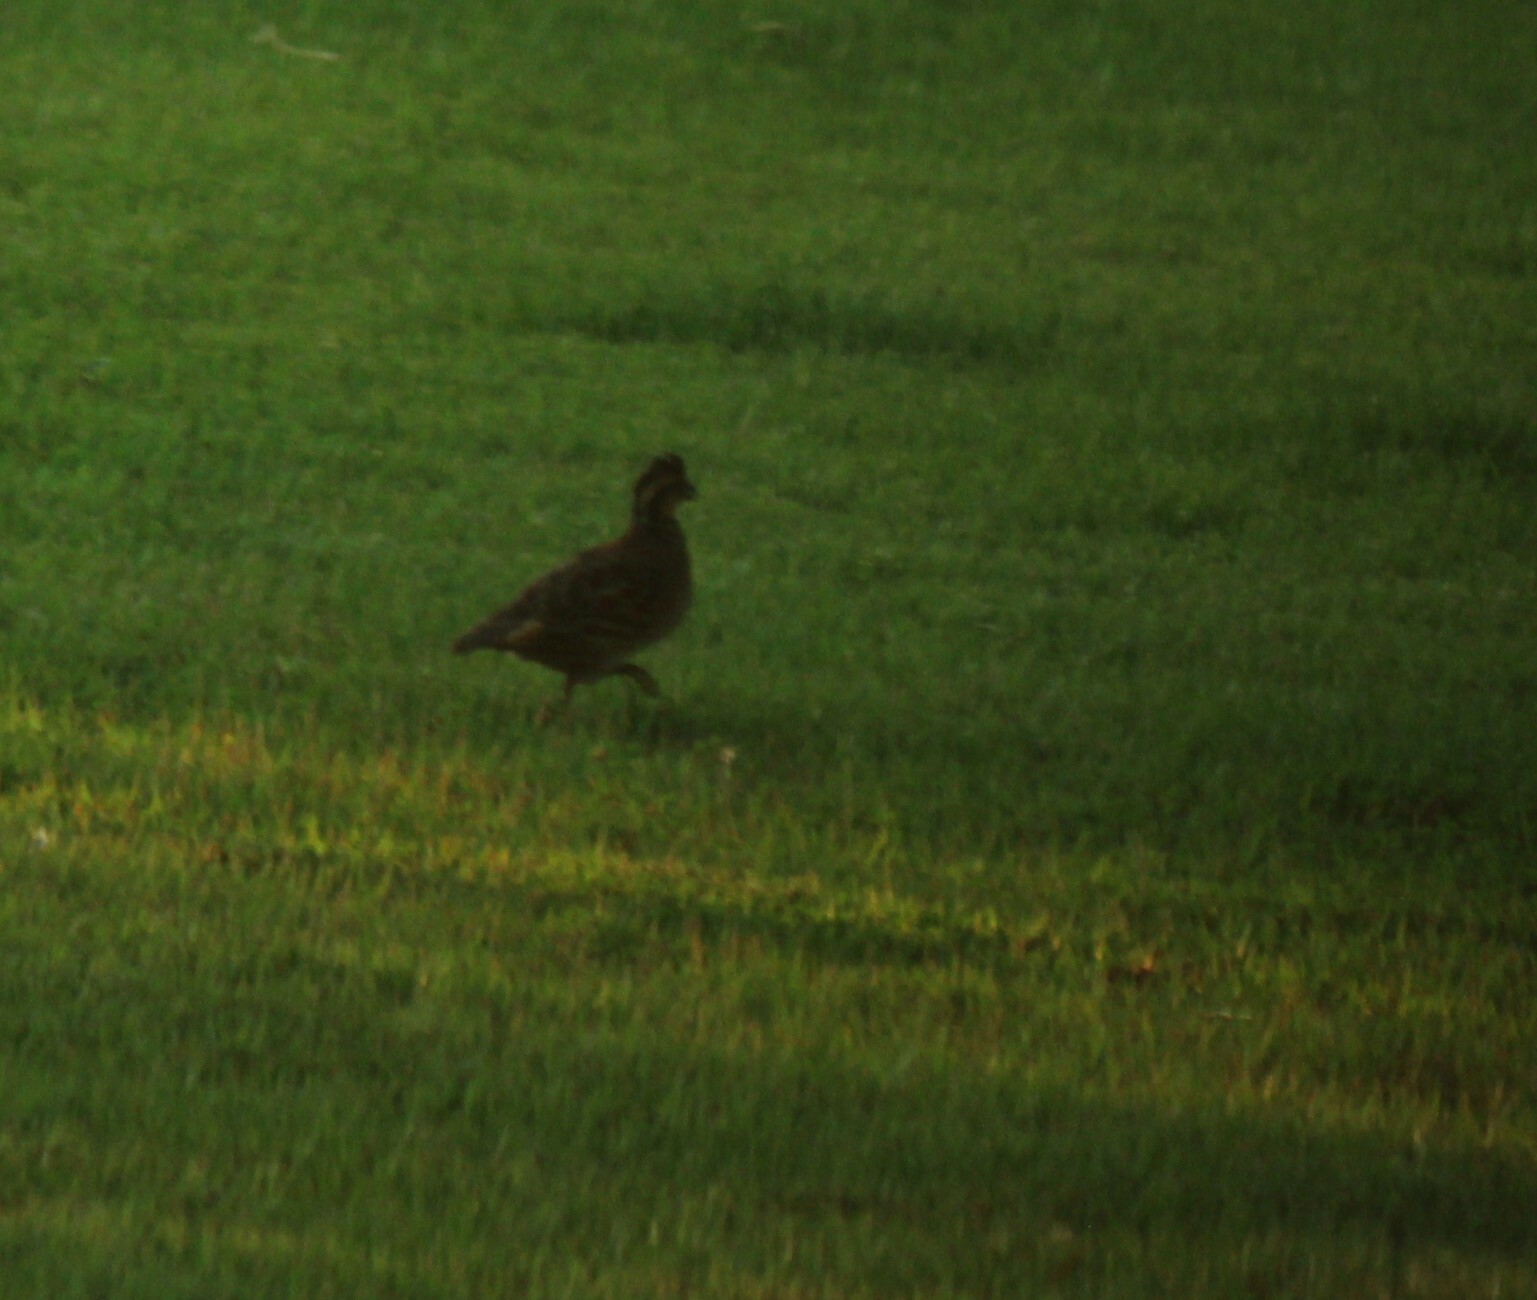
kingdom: Animalia
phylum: Chordata
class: Aves
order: Galliformes
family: Odontophoridae
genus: Colinus
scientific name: Colinus virginianus
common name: Northern bobwhite
